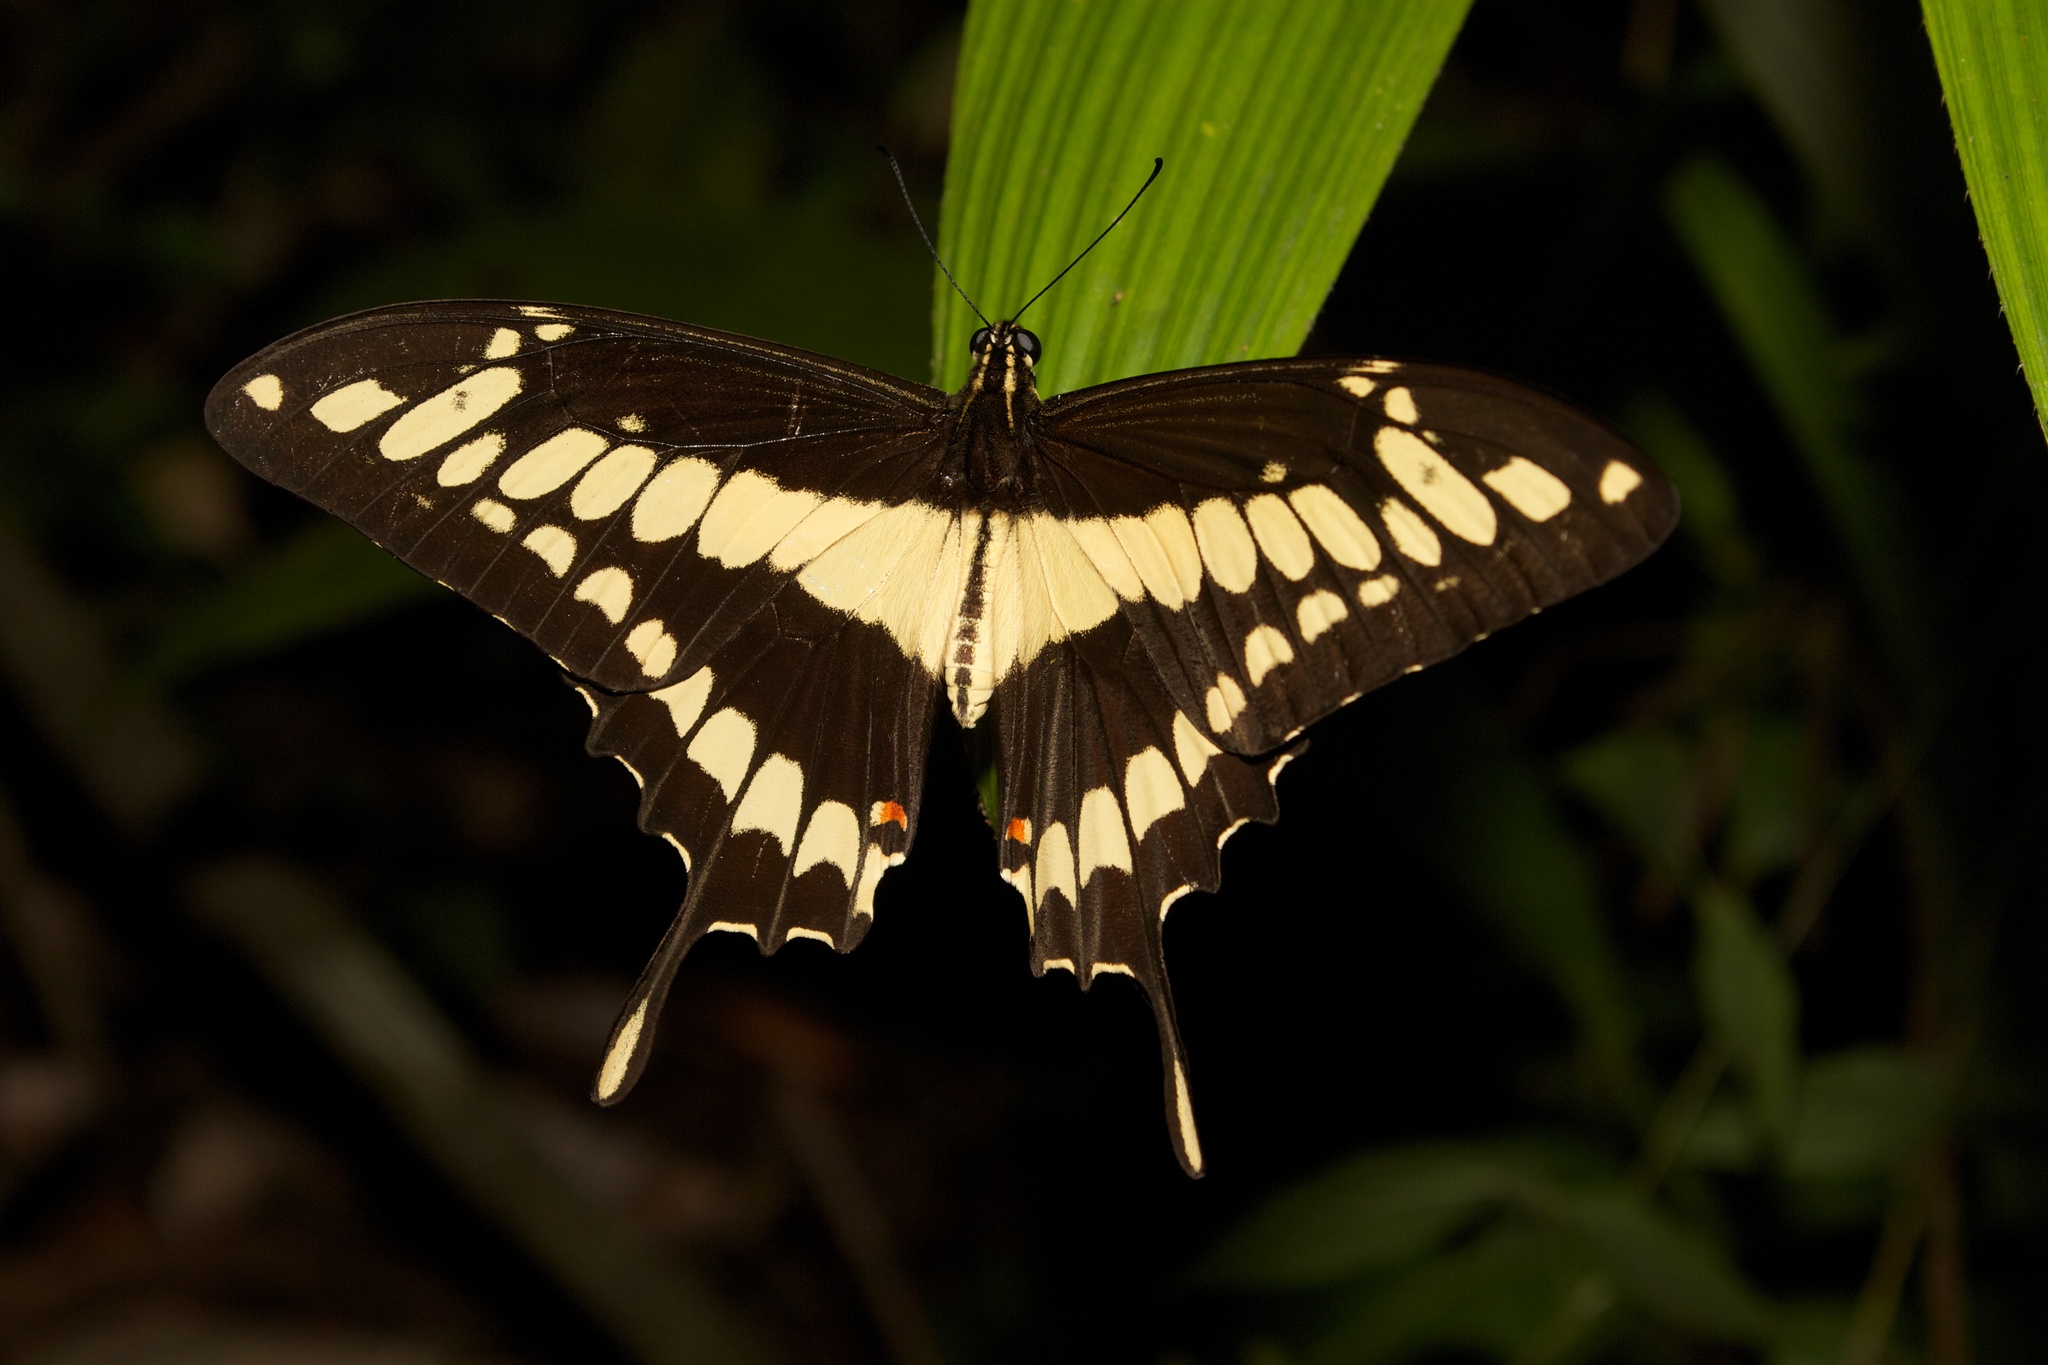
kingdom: Animalia
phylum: Arthropoda
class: Insecta
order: Lepidoptera
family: Papilionidae
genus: Papilio
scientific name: Papilio thoas
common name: King swallowtail
